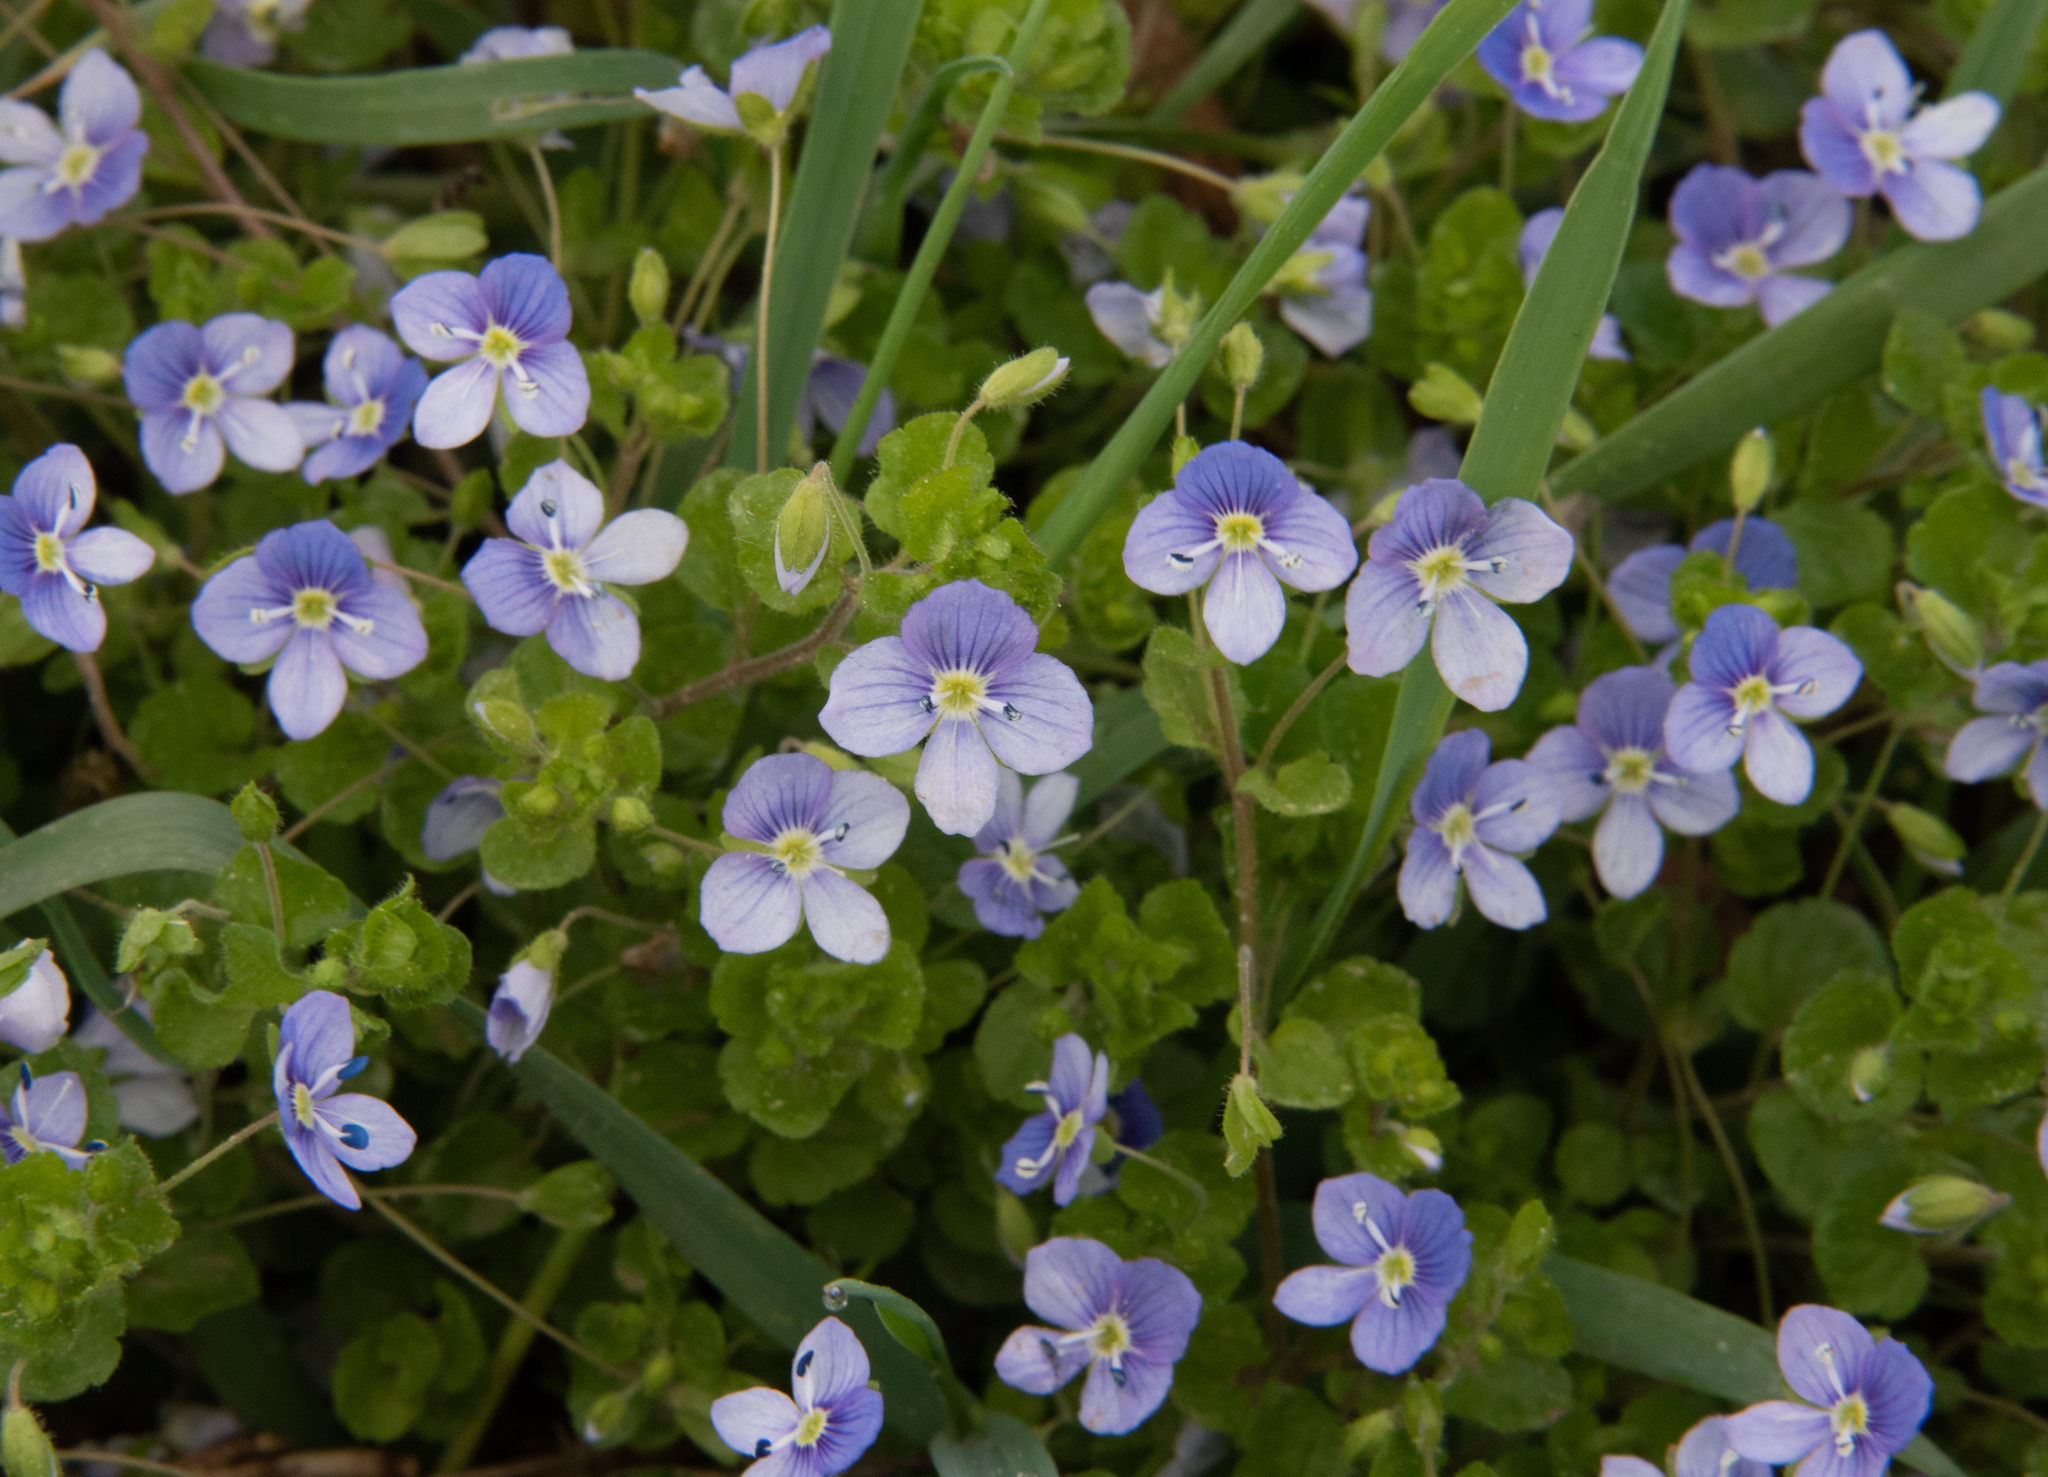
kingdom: Plantae
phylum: Tracheophyta
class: Magnoliopsida
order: Lamiales
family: Plantaginaceae
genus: Veronica
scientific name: Veronica filiformis
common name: Slender speedwell
